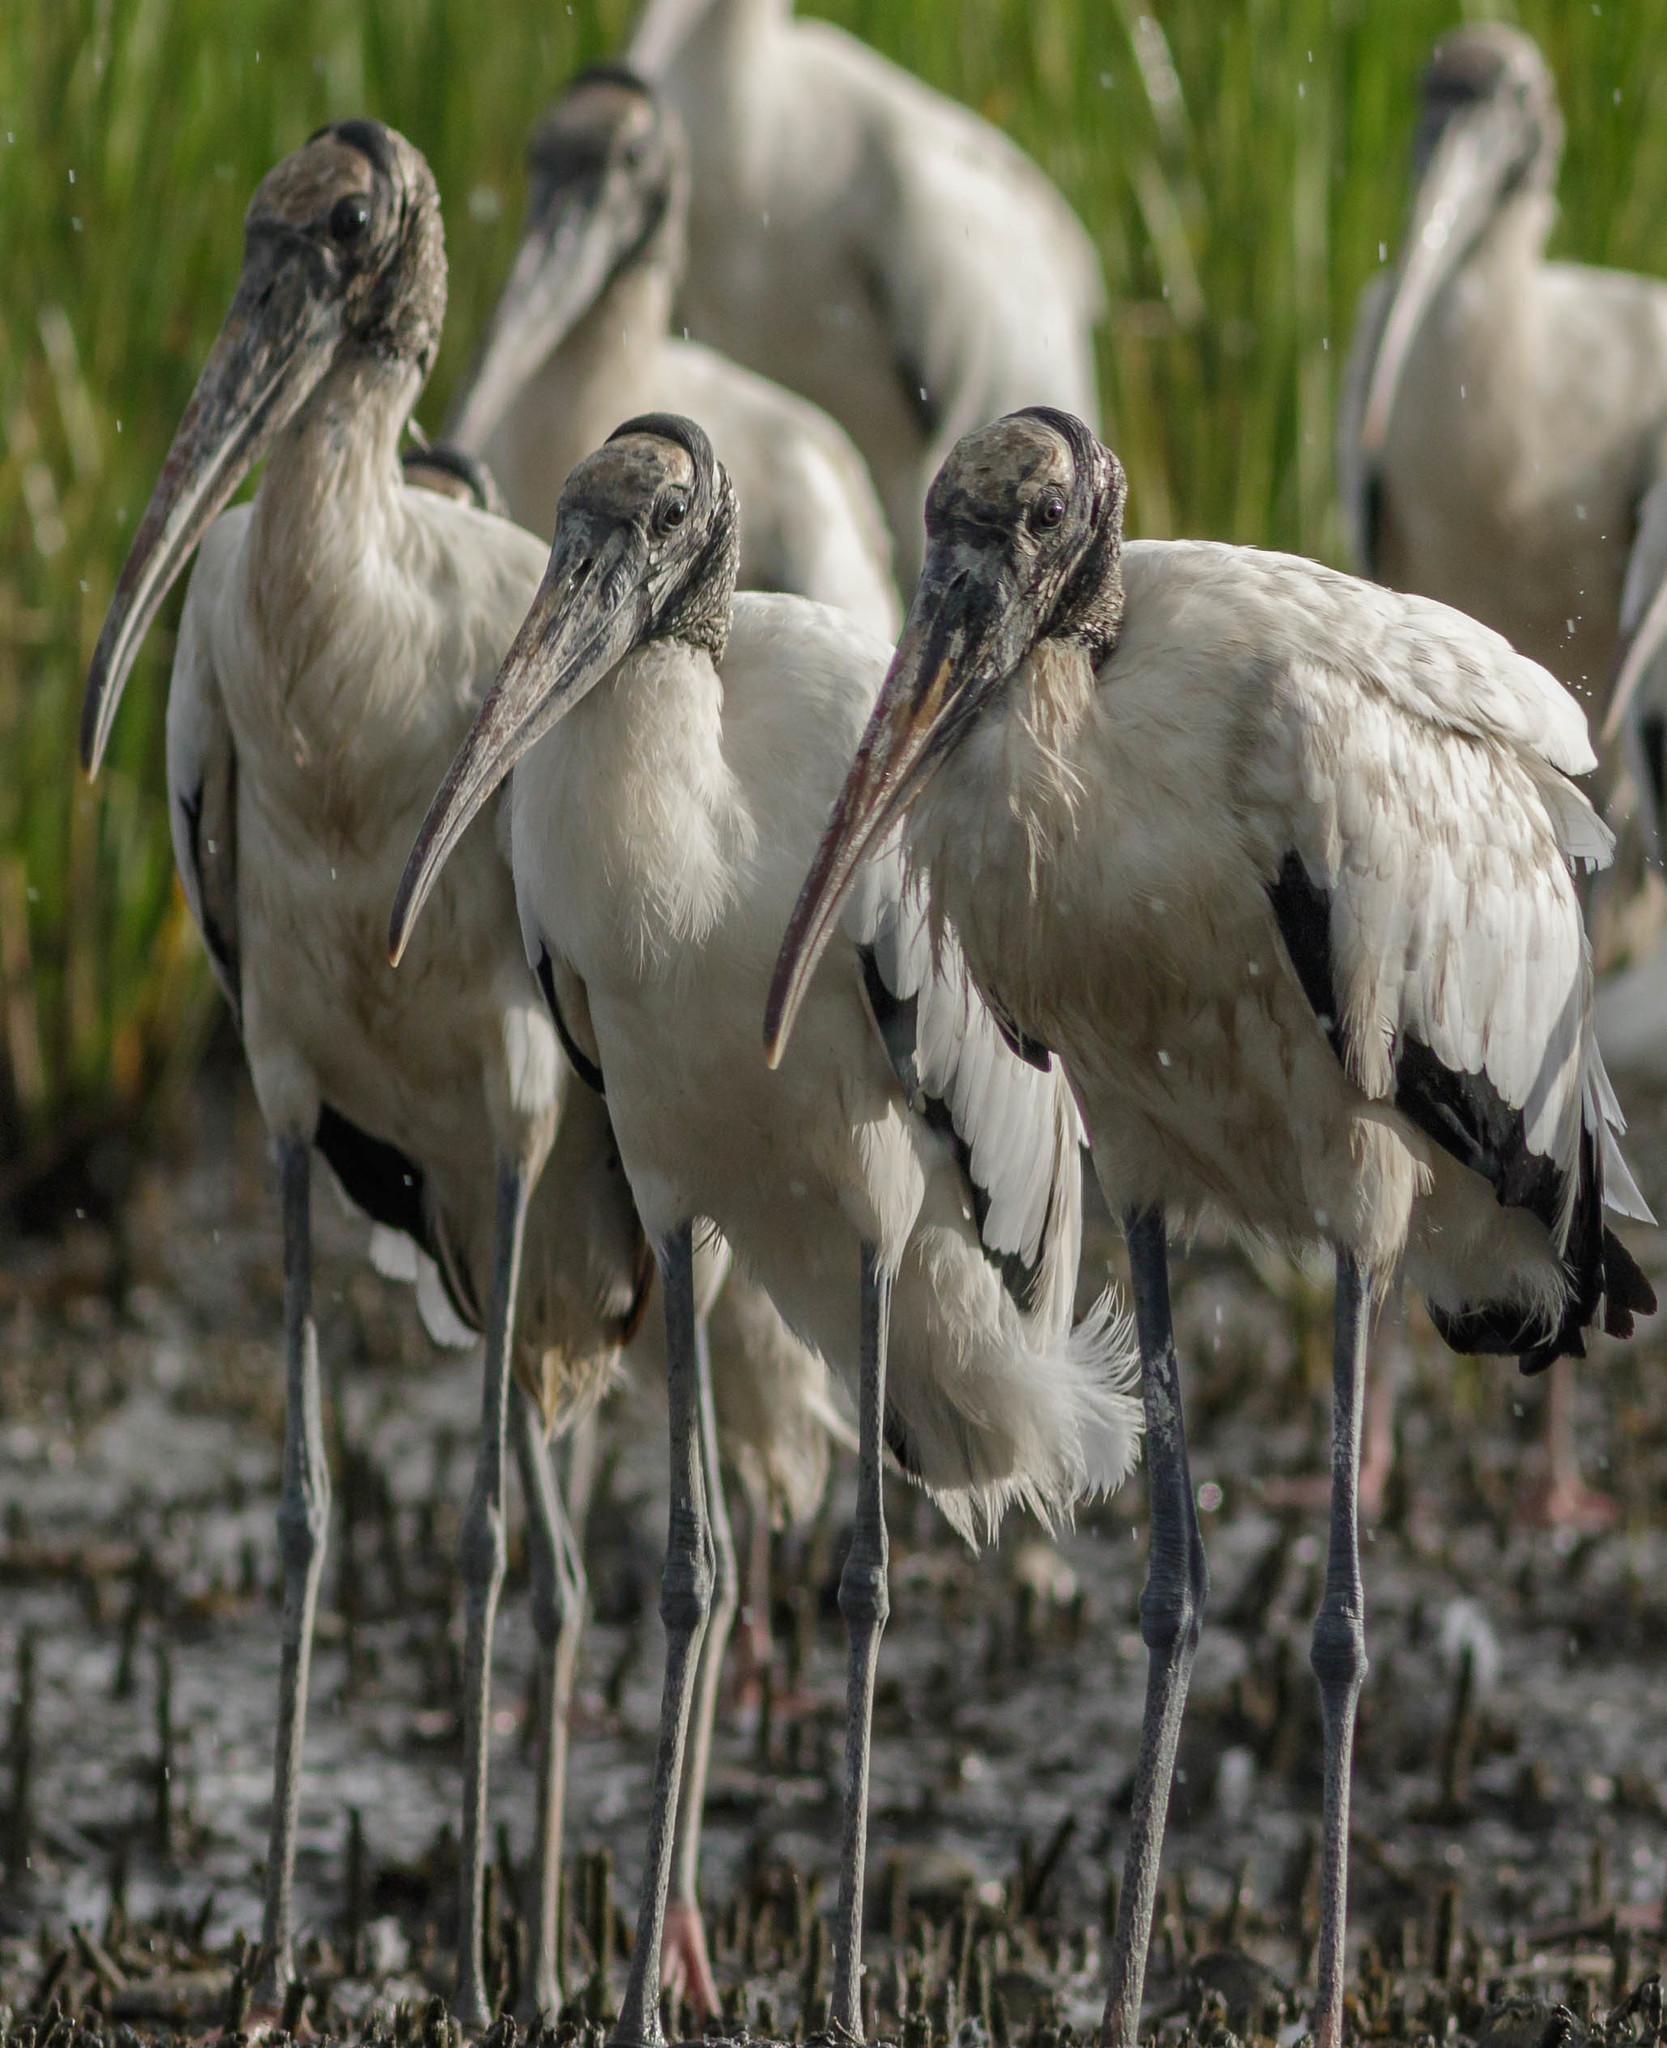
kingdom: Animalia
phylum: Chordata
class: Aves
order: Ciconiiformes
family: Ciconiidae
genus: Mycteria
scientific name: Mycteria americana
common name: Wood stork
